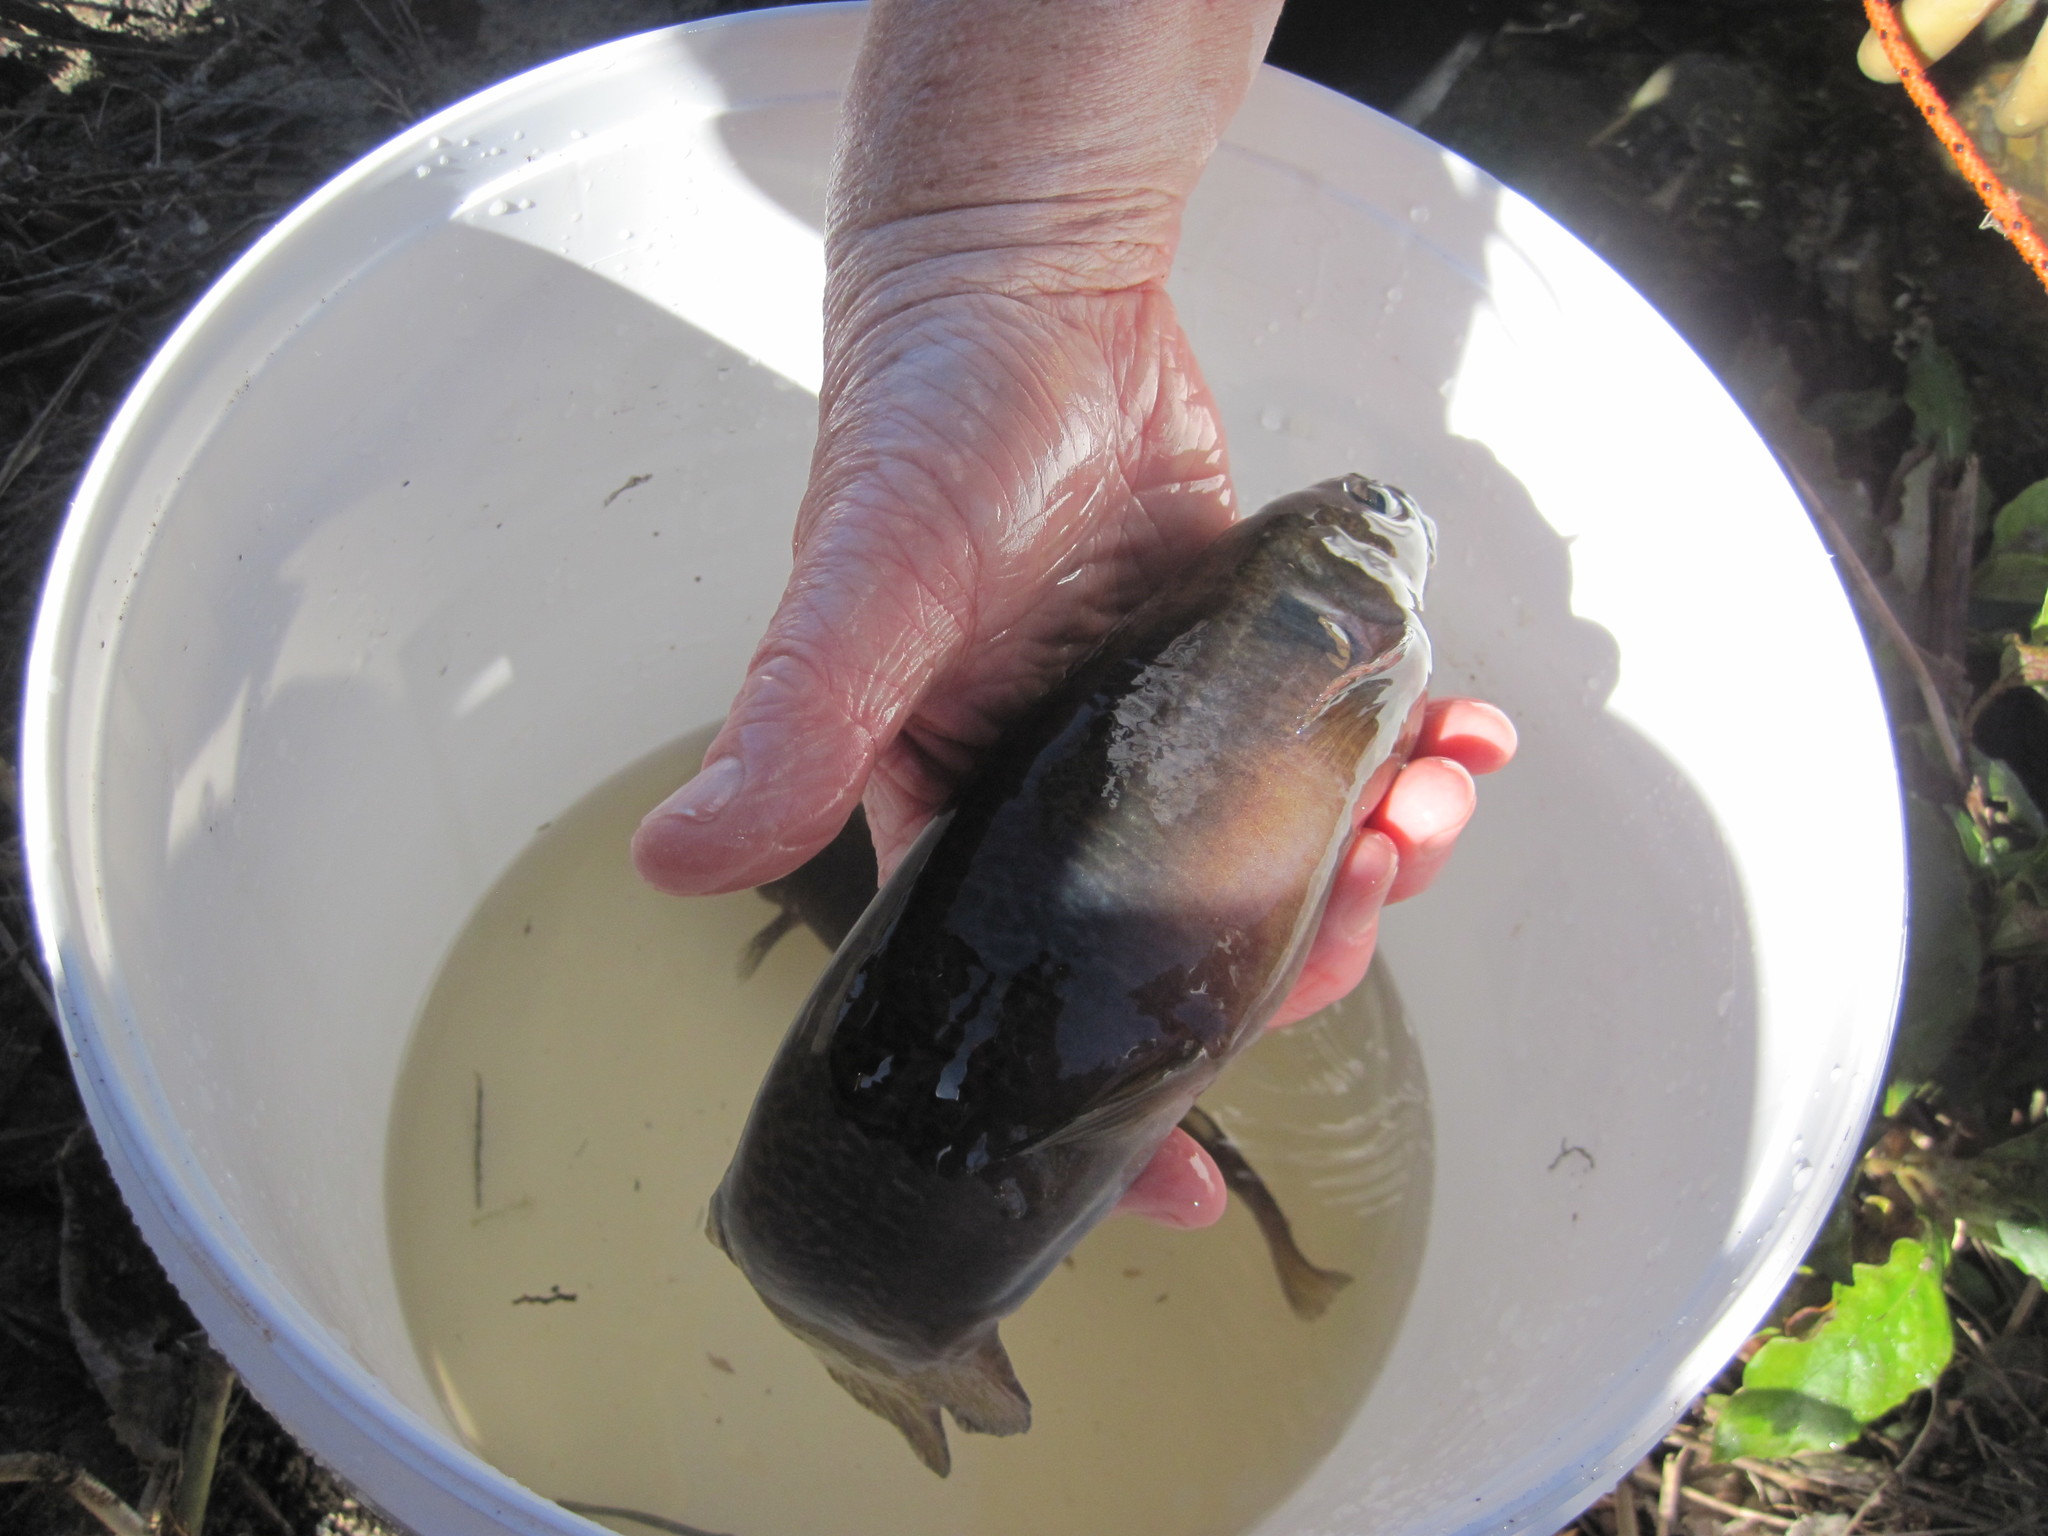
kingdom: Animalia
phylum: Chordata
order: Osmeriformes
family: Galaxiidae
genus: Galaxias
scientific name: Galaxias fasciatus
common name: Banded kokopu
